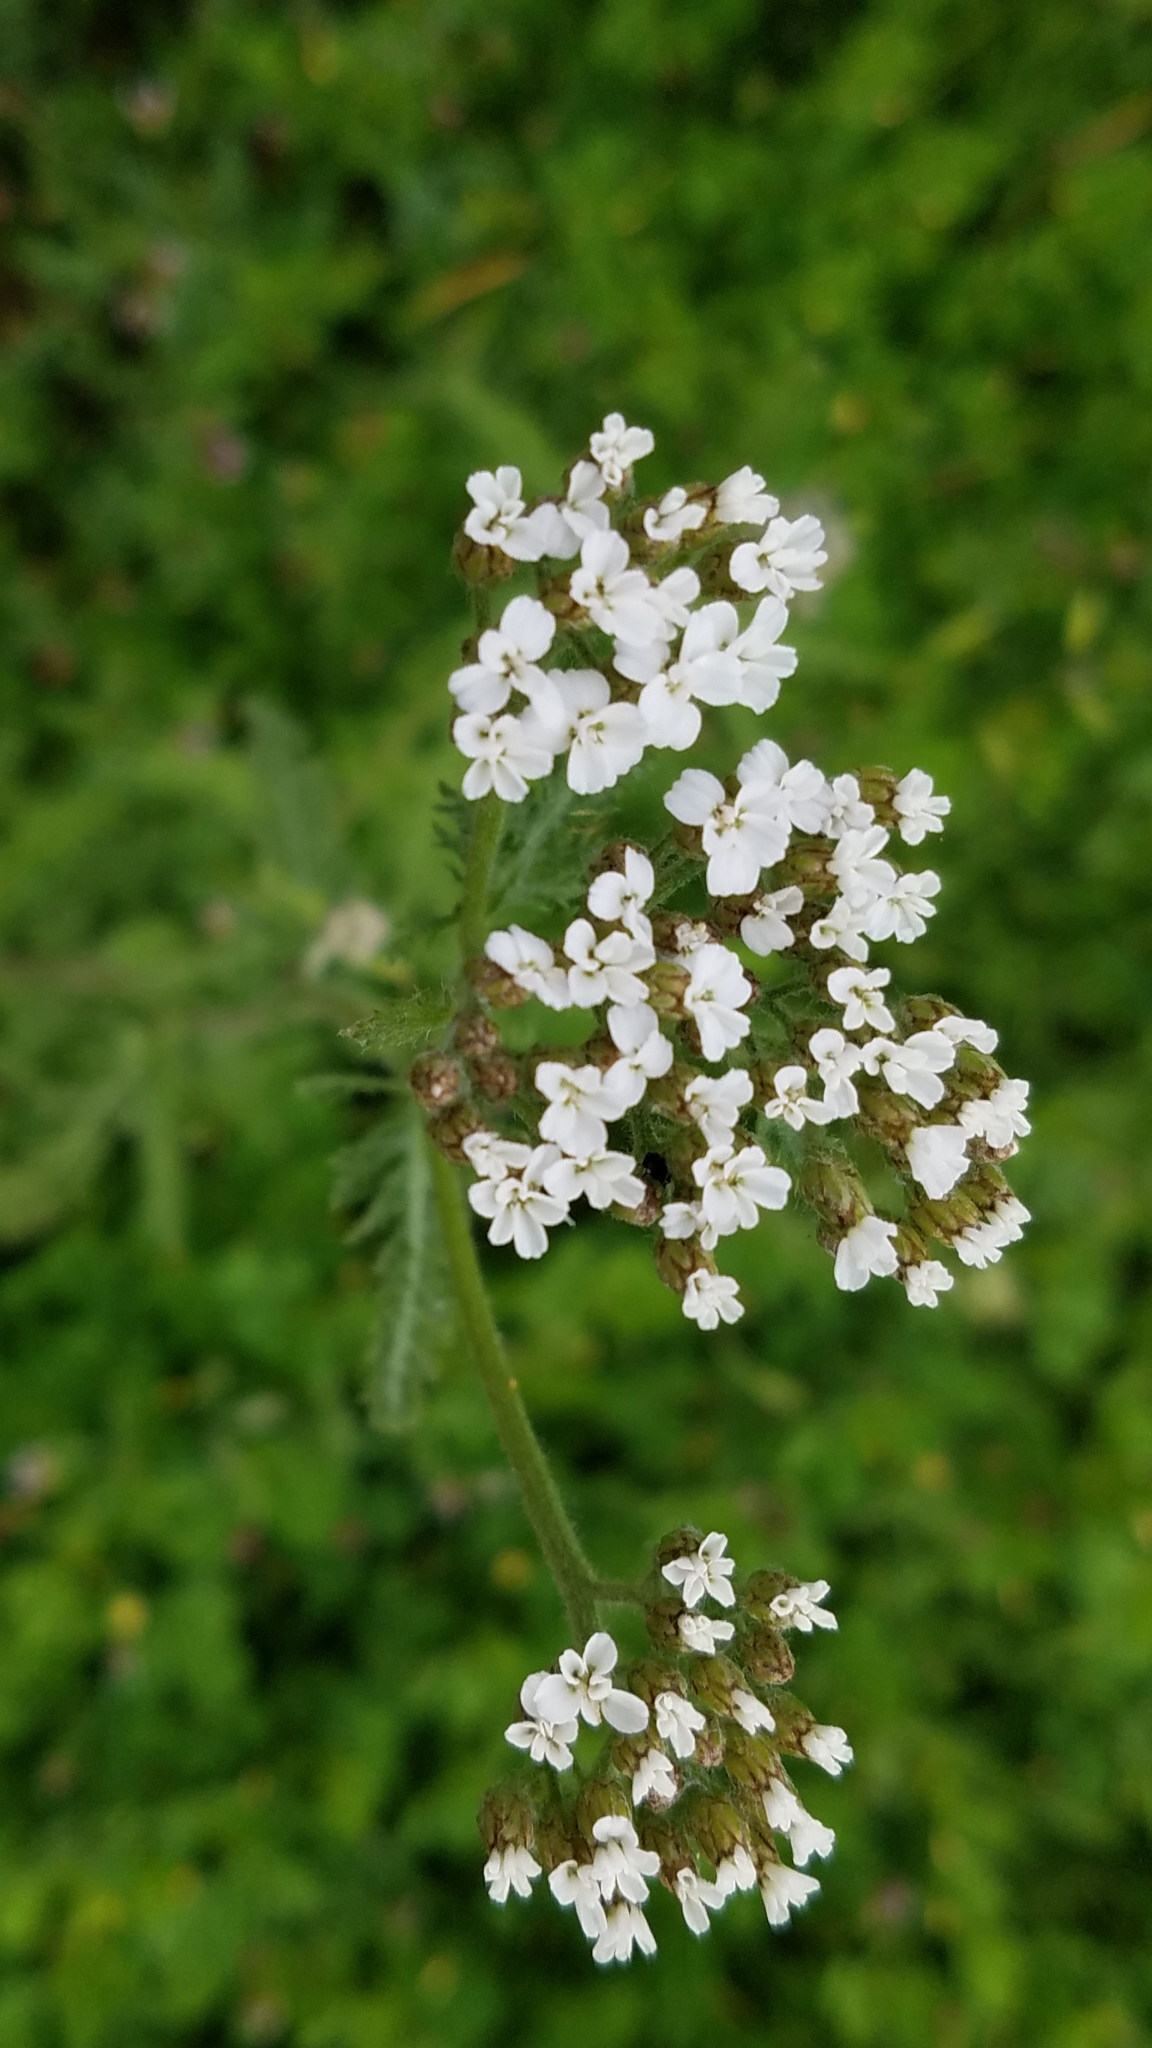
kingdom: Plantae
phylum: Tracheophyta
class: Magnoliopsida
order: Asterales
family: Asteraceae
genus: Achillea
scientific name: Achillea millefolium
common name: Yarrow
